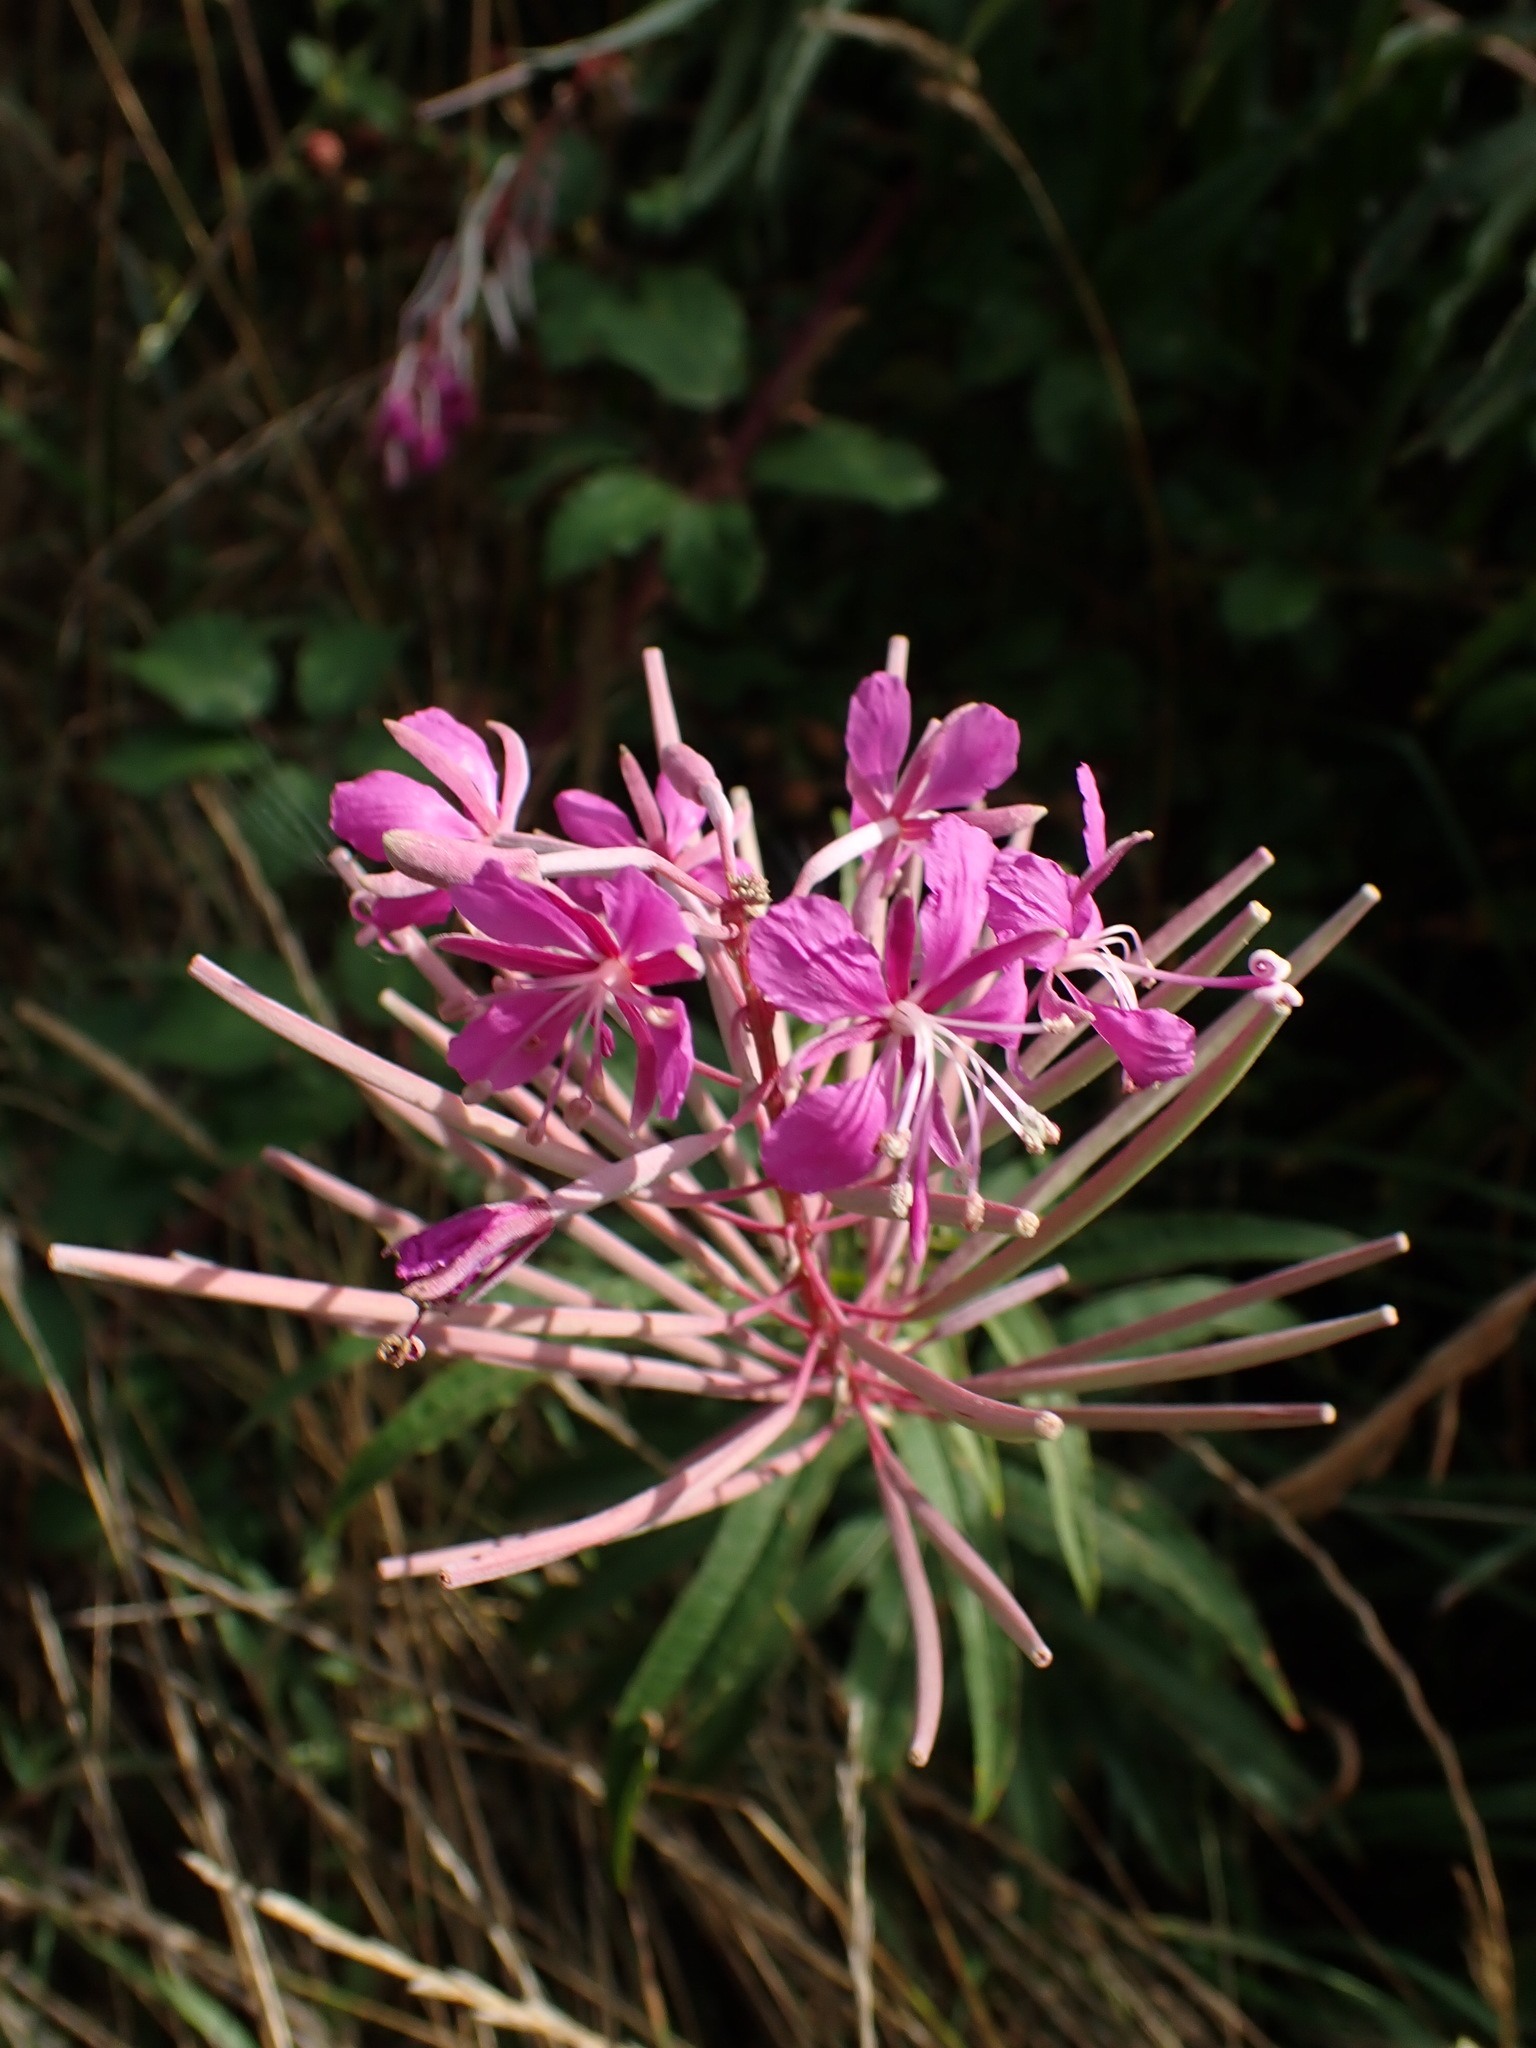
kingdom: Plantae
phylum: Tracheophyta
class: Magnoliopsida
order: Myrtales
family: Onagraceae
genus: Chamaenerion
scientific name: Chamaenerion angustifolium
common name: Fireweed
